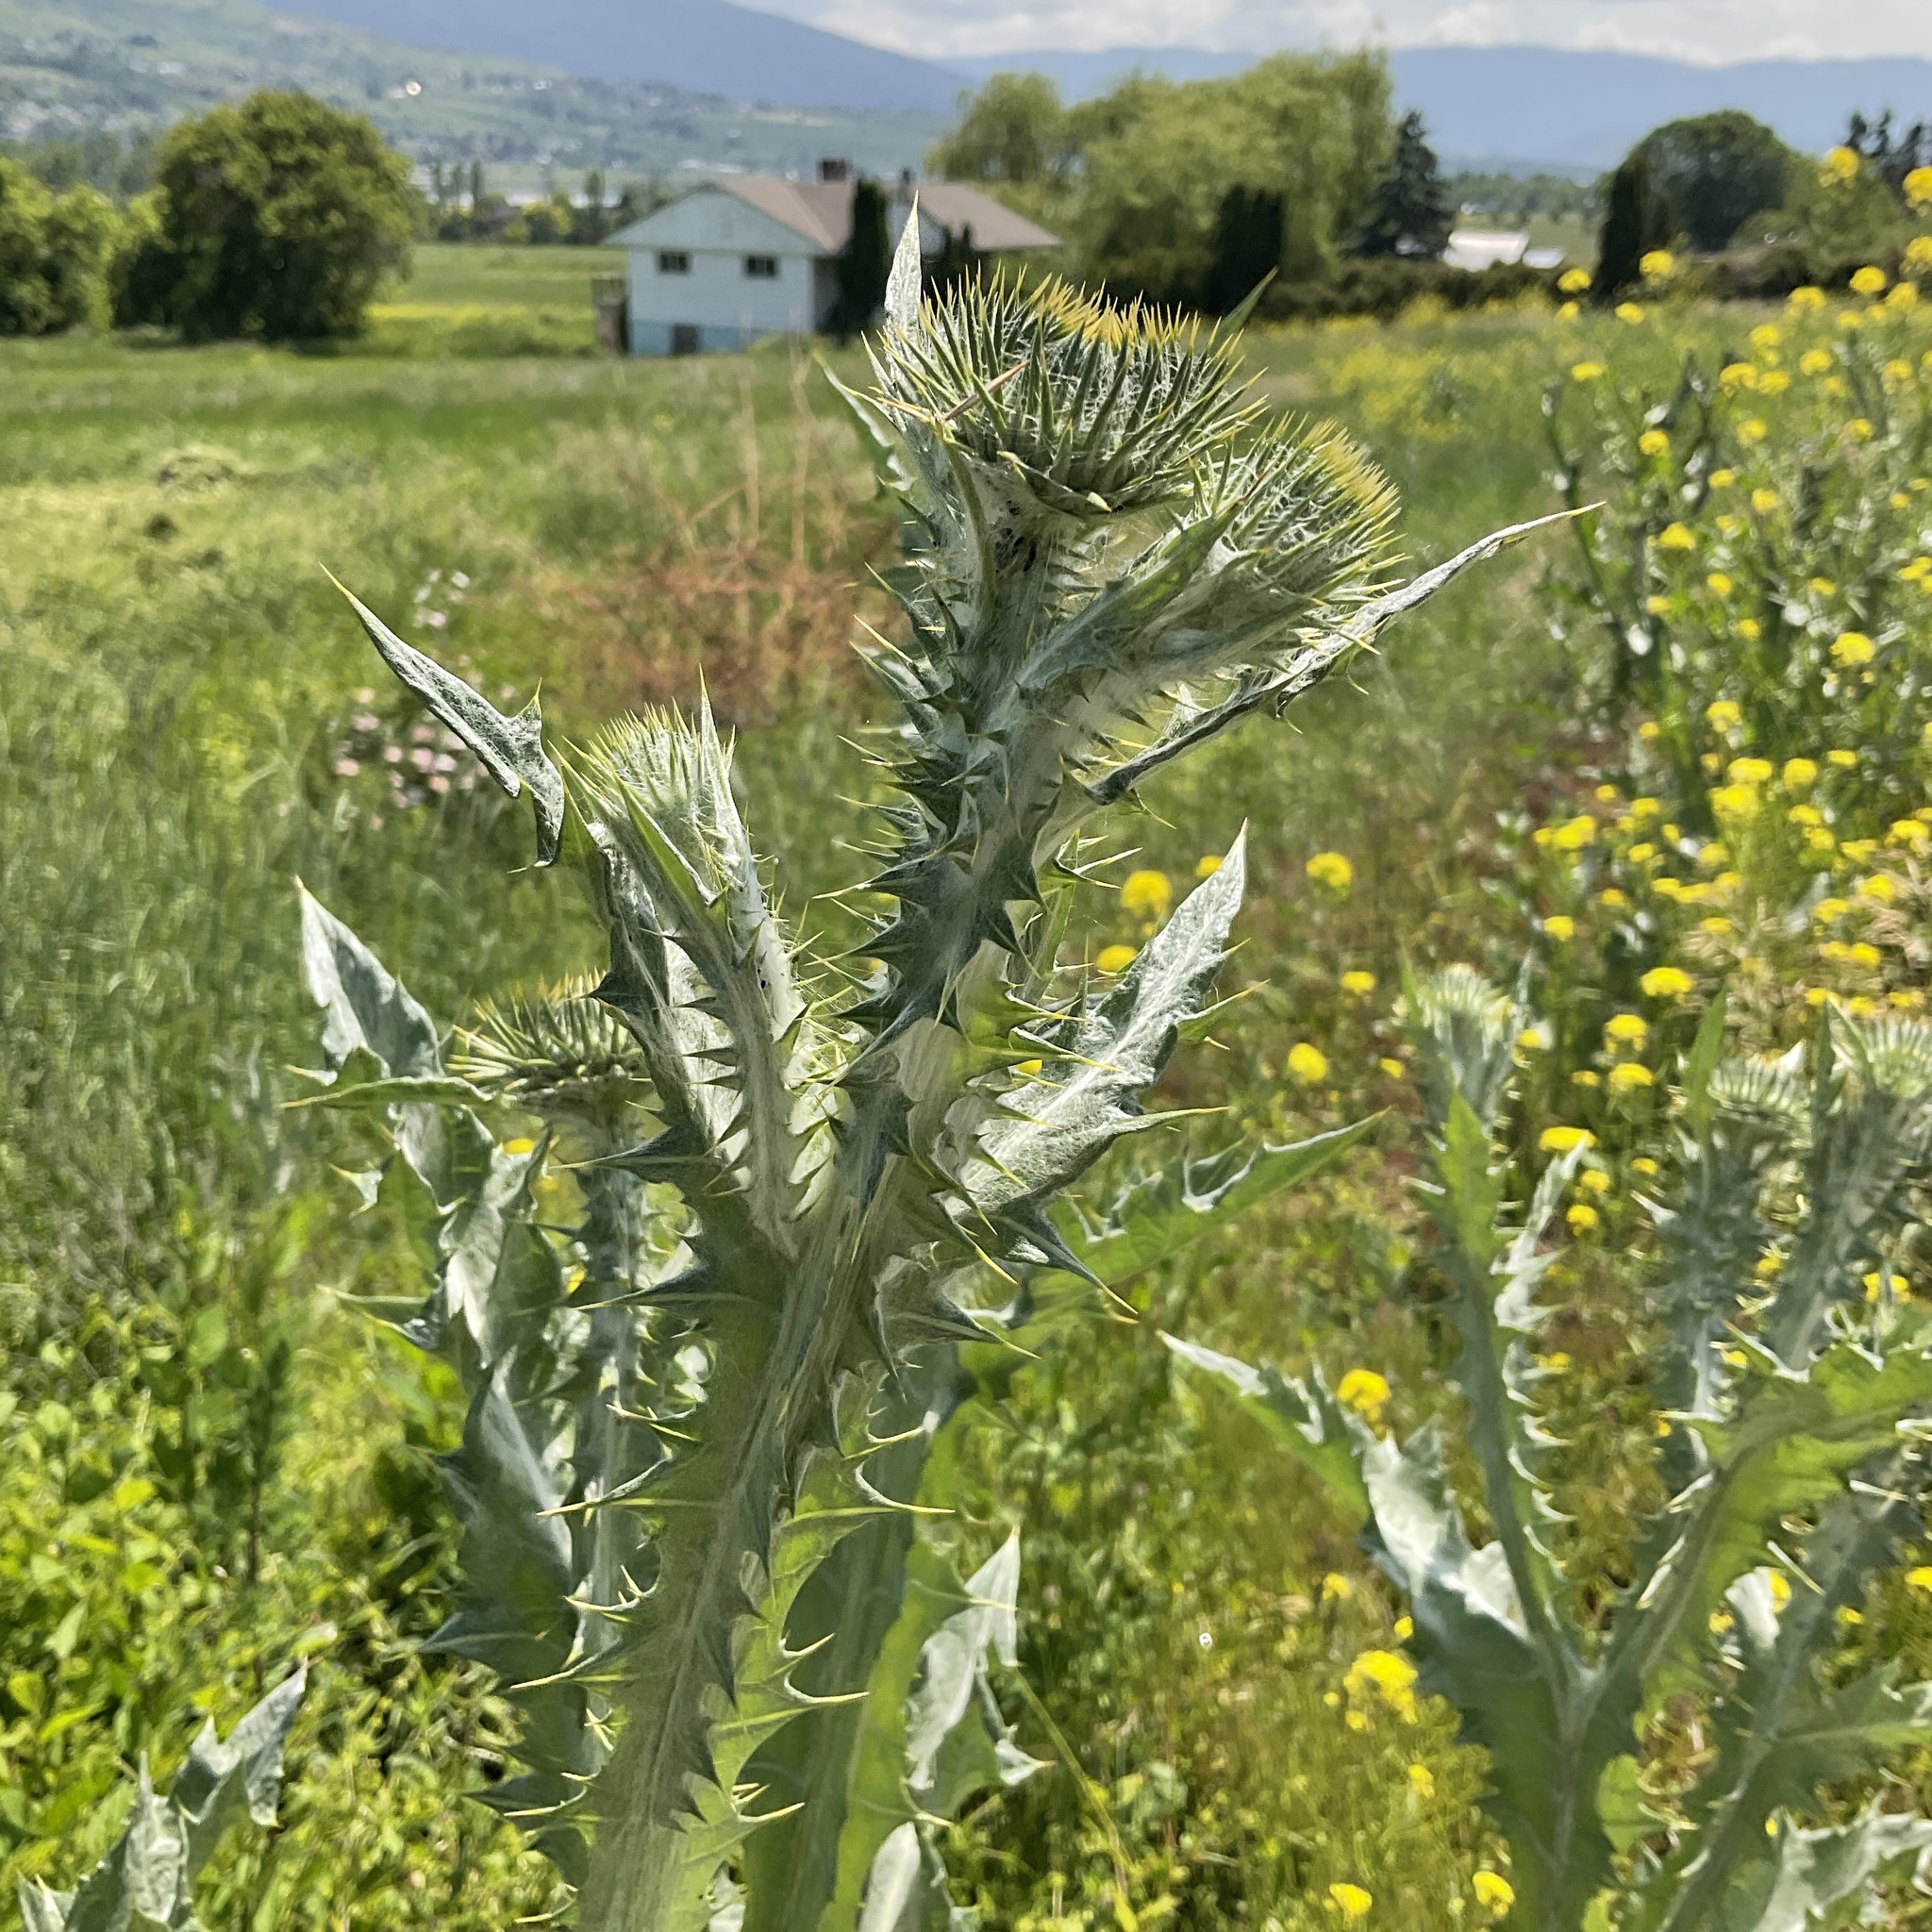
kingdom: Plantae
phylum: Tracheophyta
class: Magnoliopsida
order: Asterales
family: Asteraceae
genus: Onopordum
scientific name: Onopordum acanthium
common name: Scotch thistle
